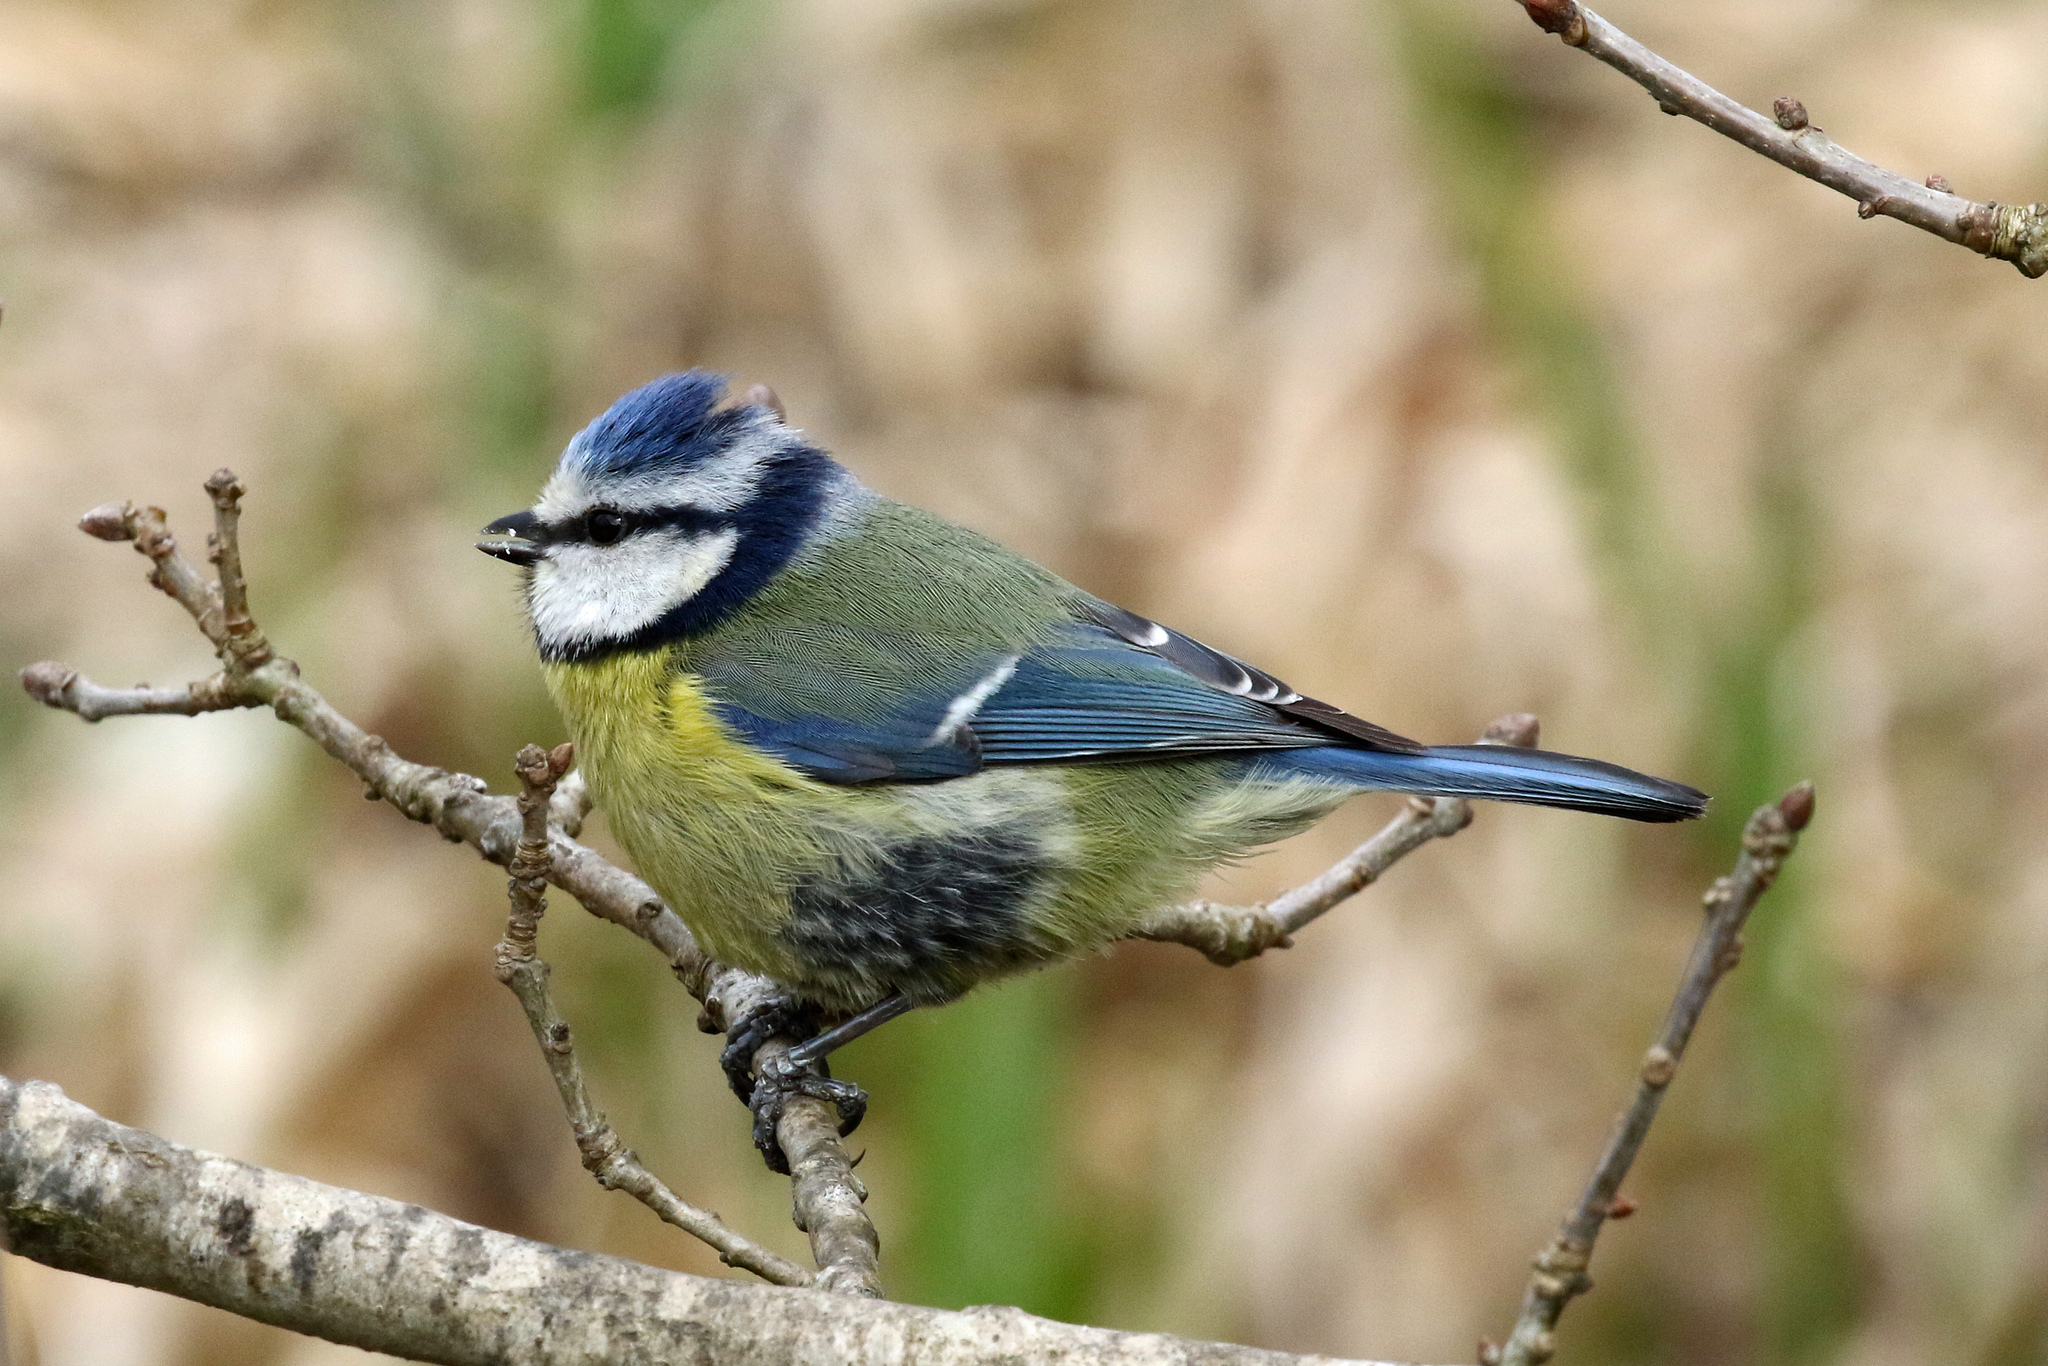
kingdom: Animalia
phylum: Chordata
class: Aves
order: Passeriformes
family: Paridae
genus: Cyanistes
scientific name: Cyanistes caeruleus
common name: Eurasian blue tit
